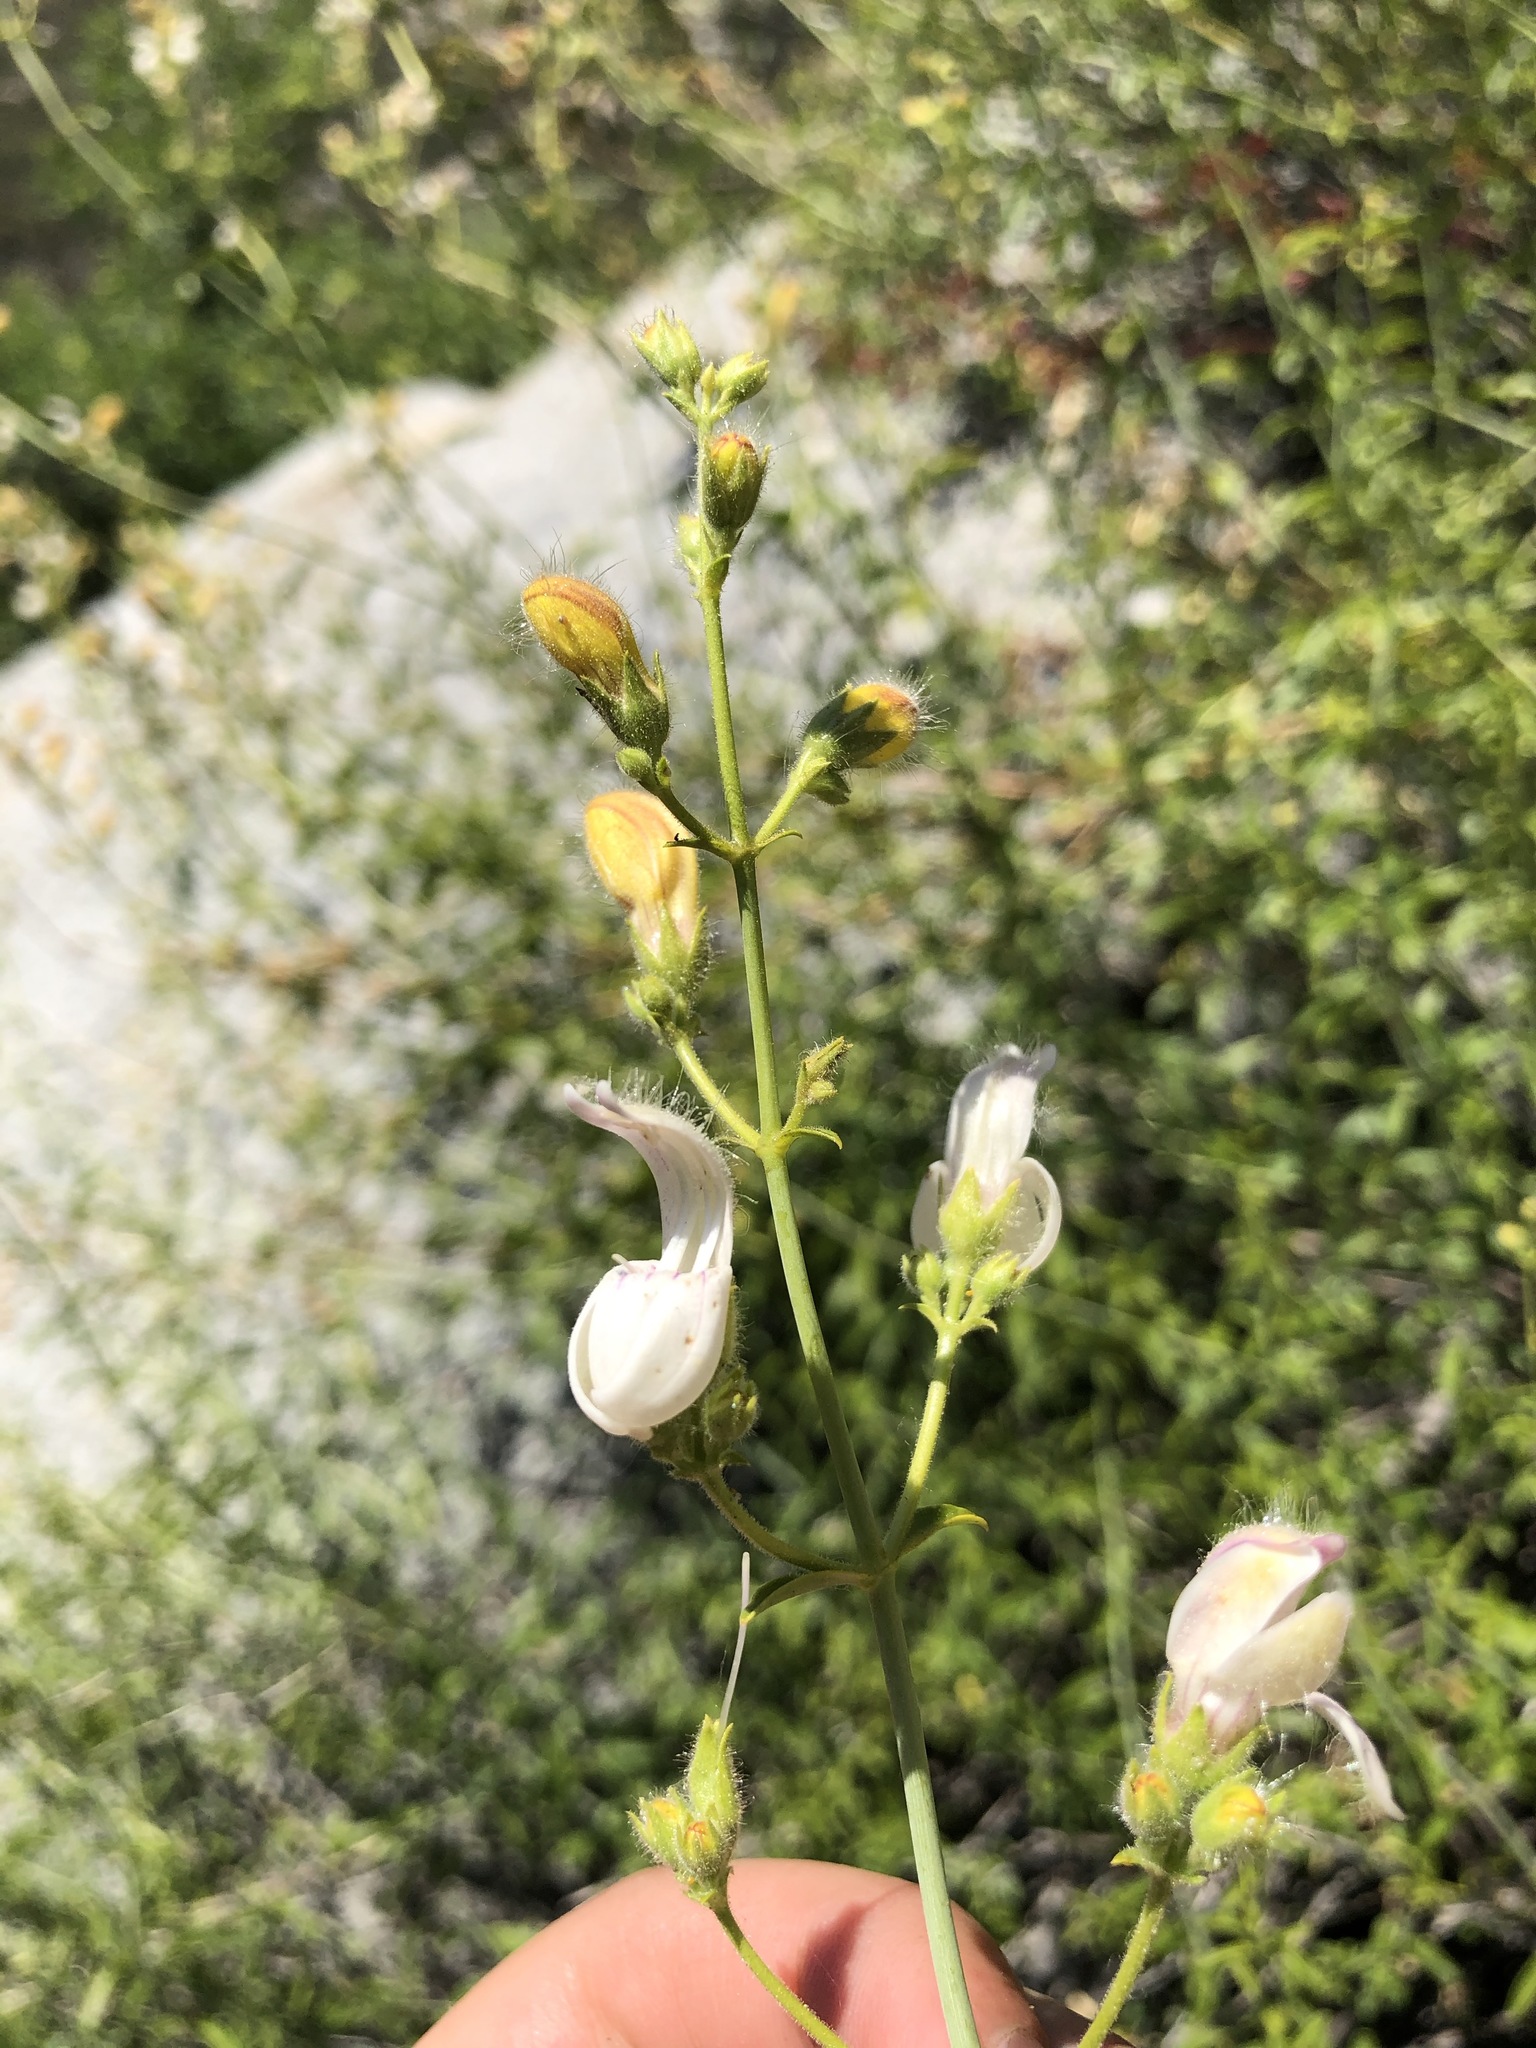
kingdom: Plantae
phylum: Tracheophyta
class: Magnoliopsida
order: Lamiales
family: Plantaginaceae
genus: Keckiella
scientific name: Keckiella breviflora
